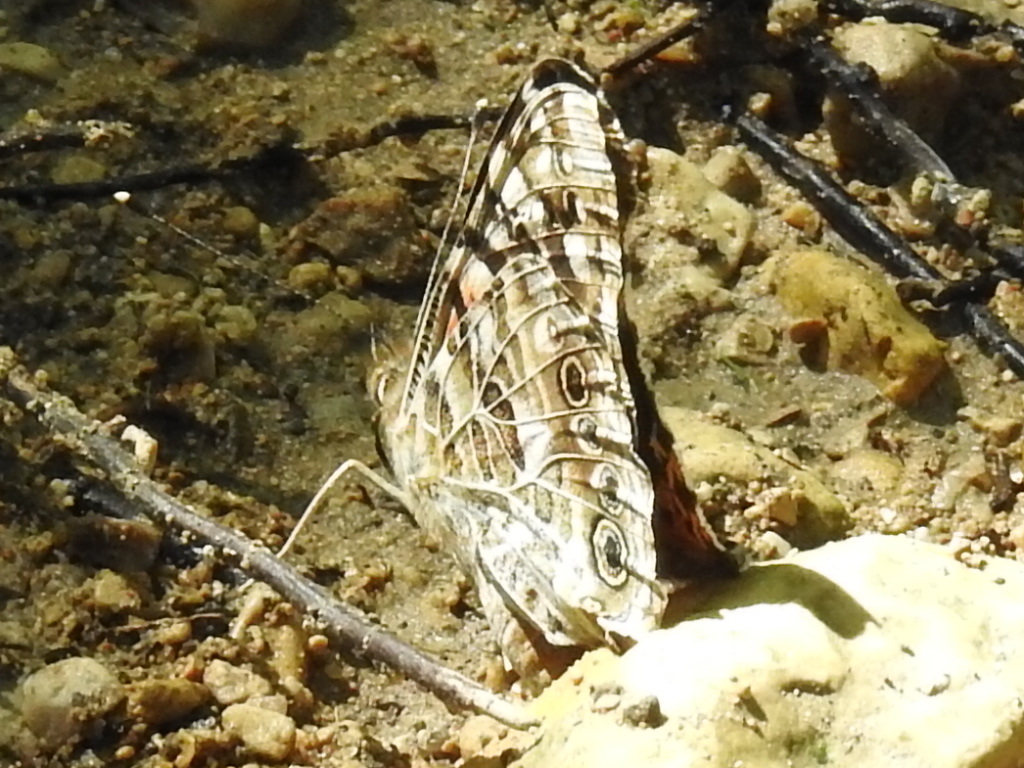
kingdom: Animalia
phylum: Arthropoda
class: Insecta
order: Lepidoptera
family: Nymphalidae
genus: Vanessa
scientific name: Vanessa cardui
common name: Painted lady
